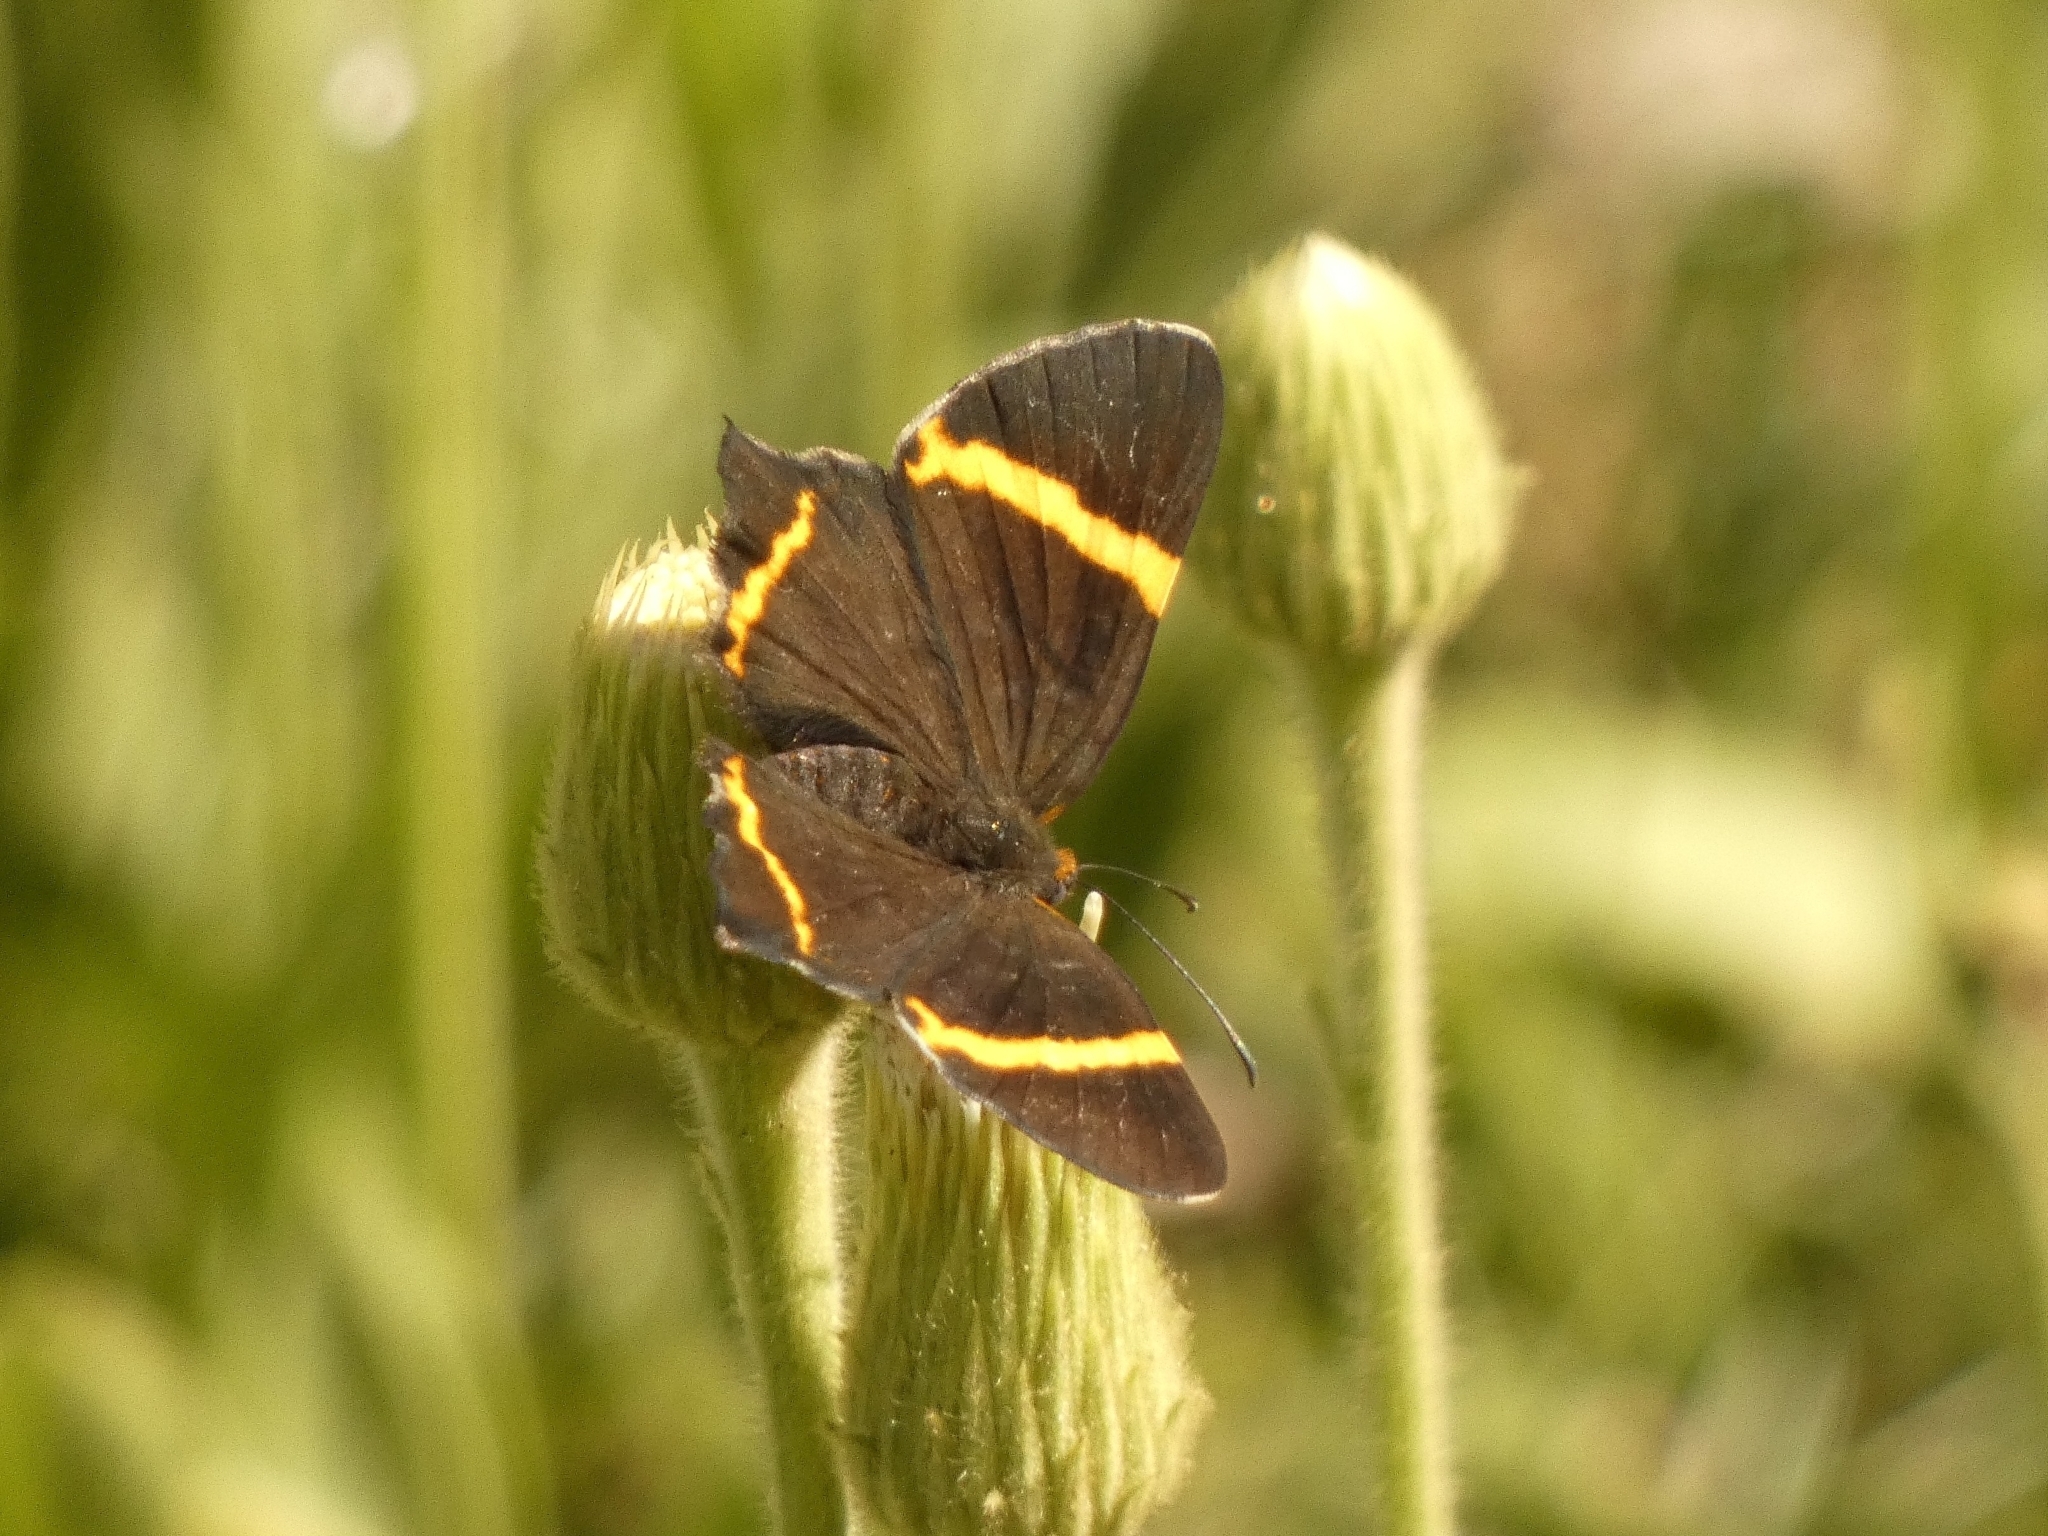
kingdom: Animalia
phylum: Arthropoda
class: Insecta
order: Lepidoptera
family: Riodinidae
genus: Riodina
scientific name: Riodina lysippoides
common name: Little dancer metalmark
